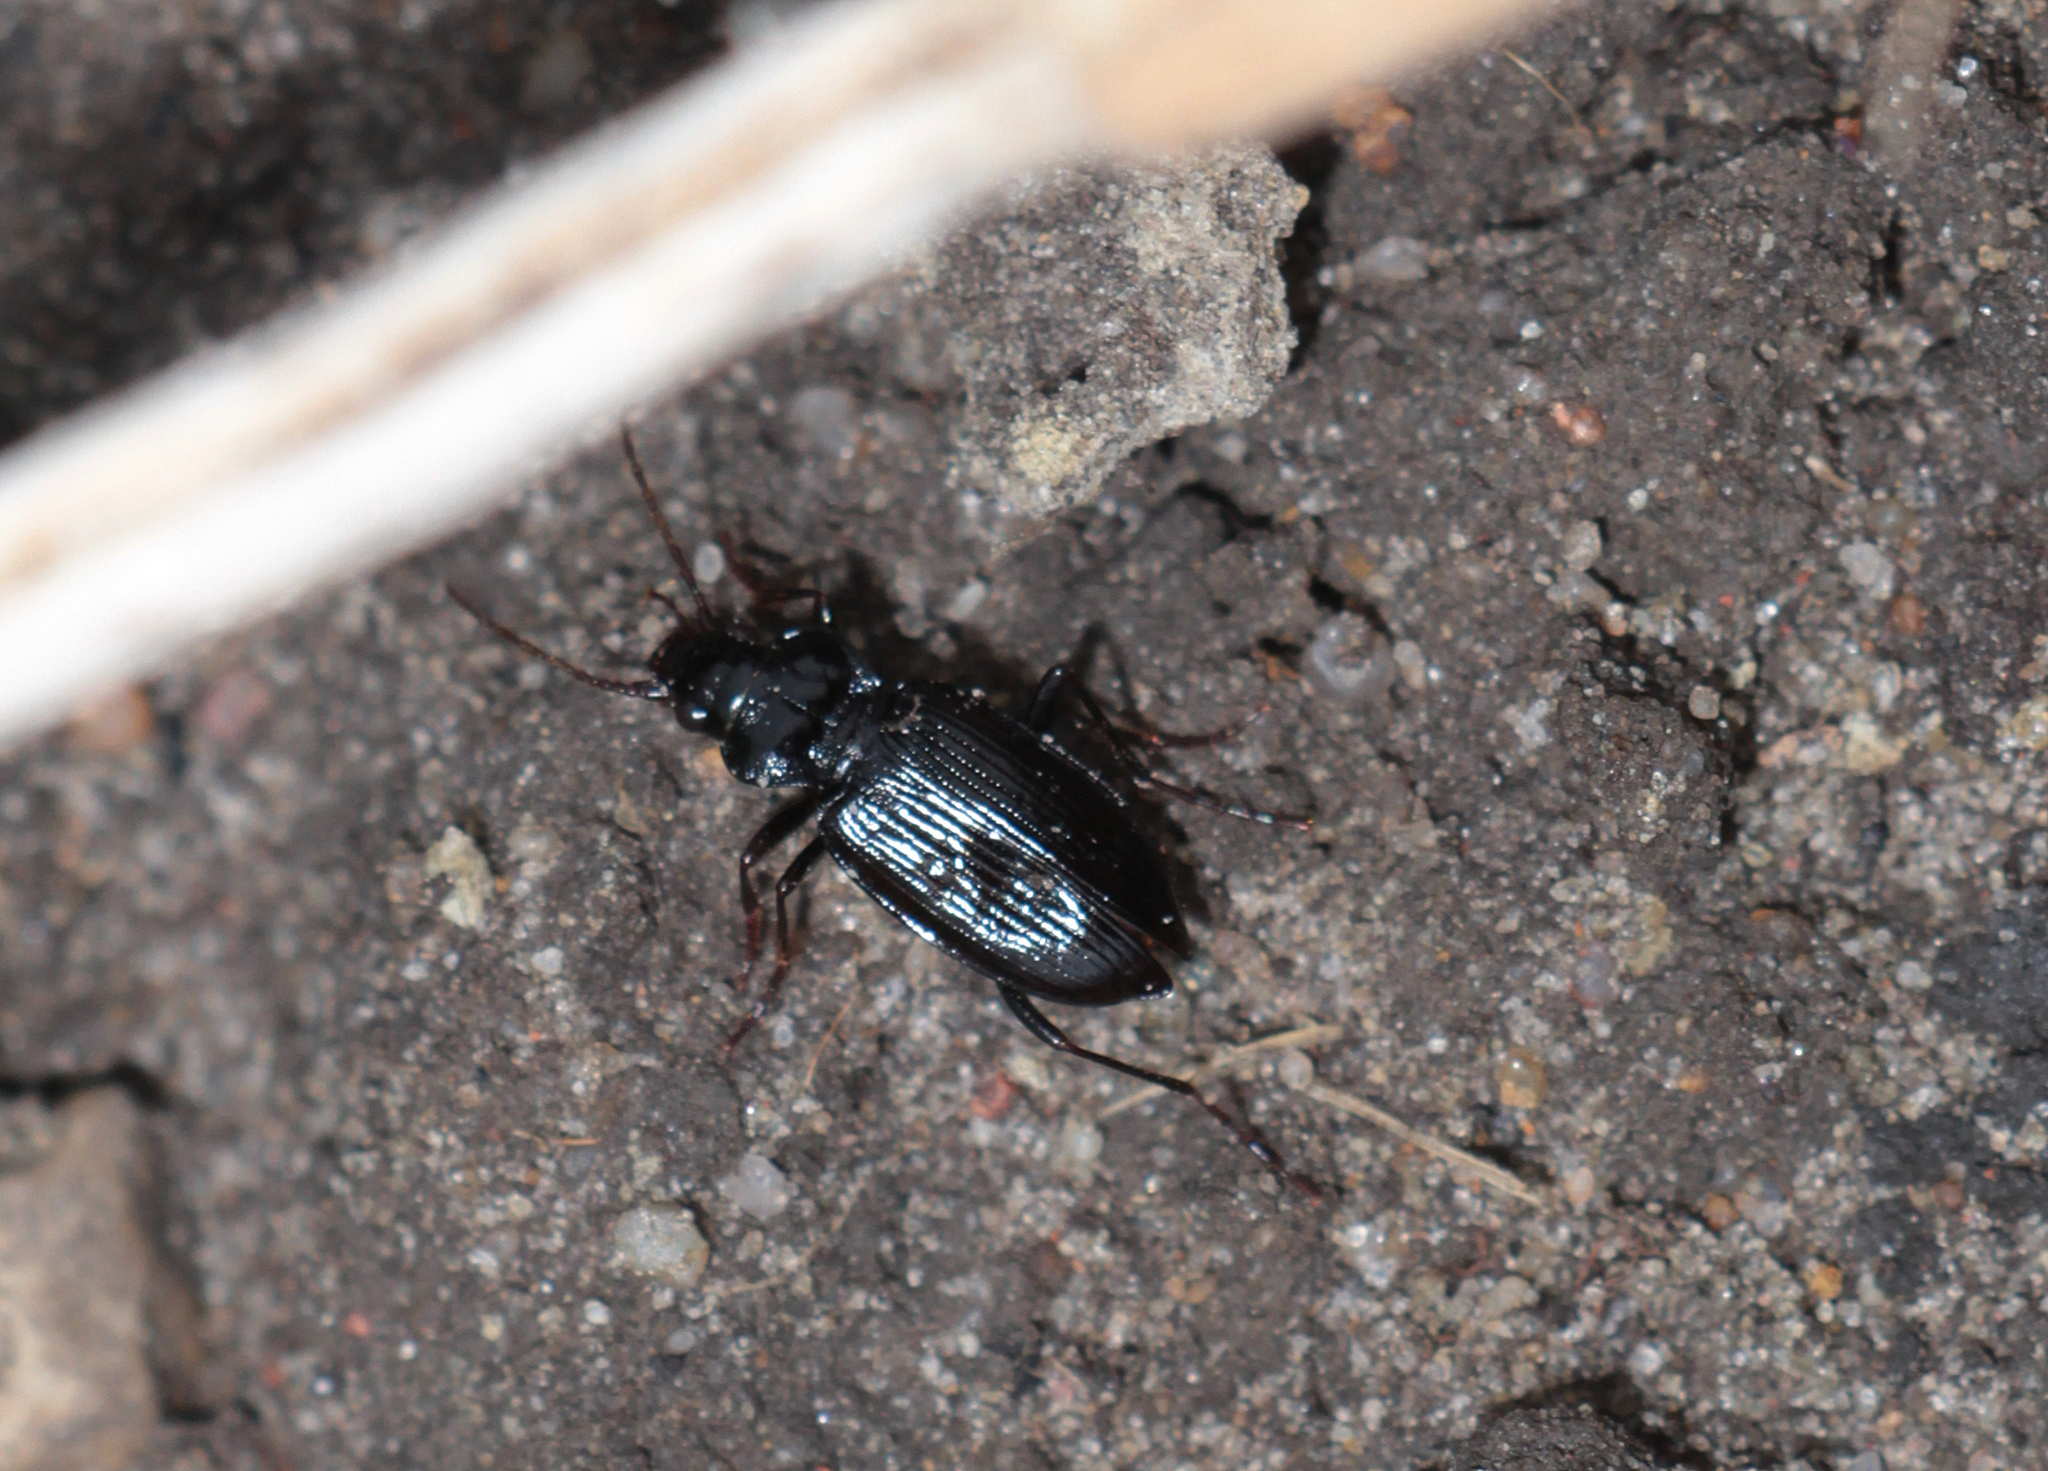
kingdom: Animalia
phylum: Arthropoda
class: Insecta
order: Coleoptera
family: Carabidae
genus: Nebria
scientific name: Nebria brevicollis
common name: Short-necked gazelle beetle
